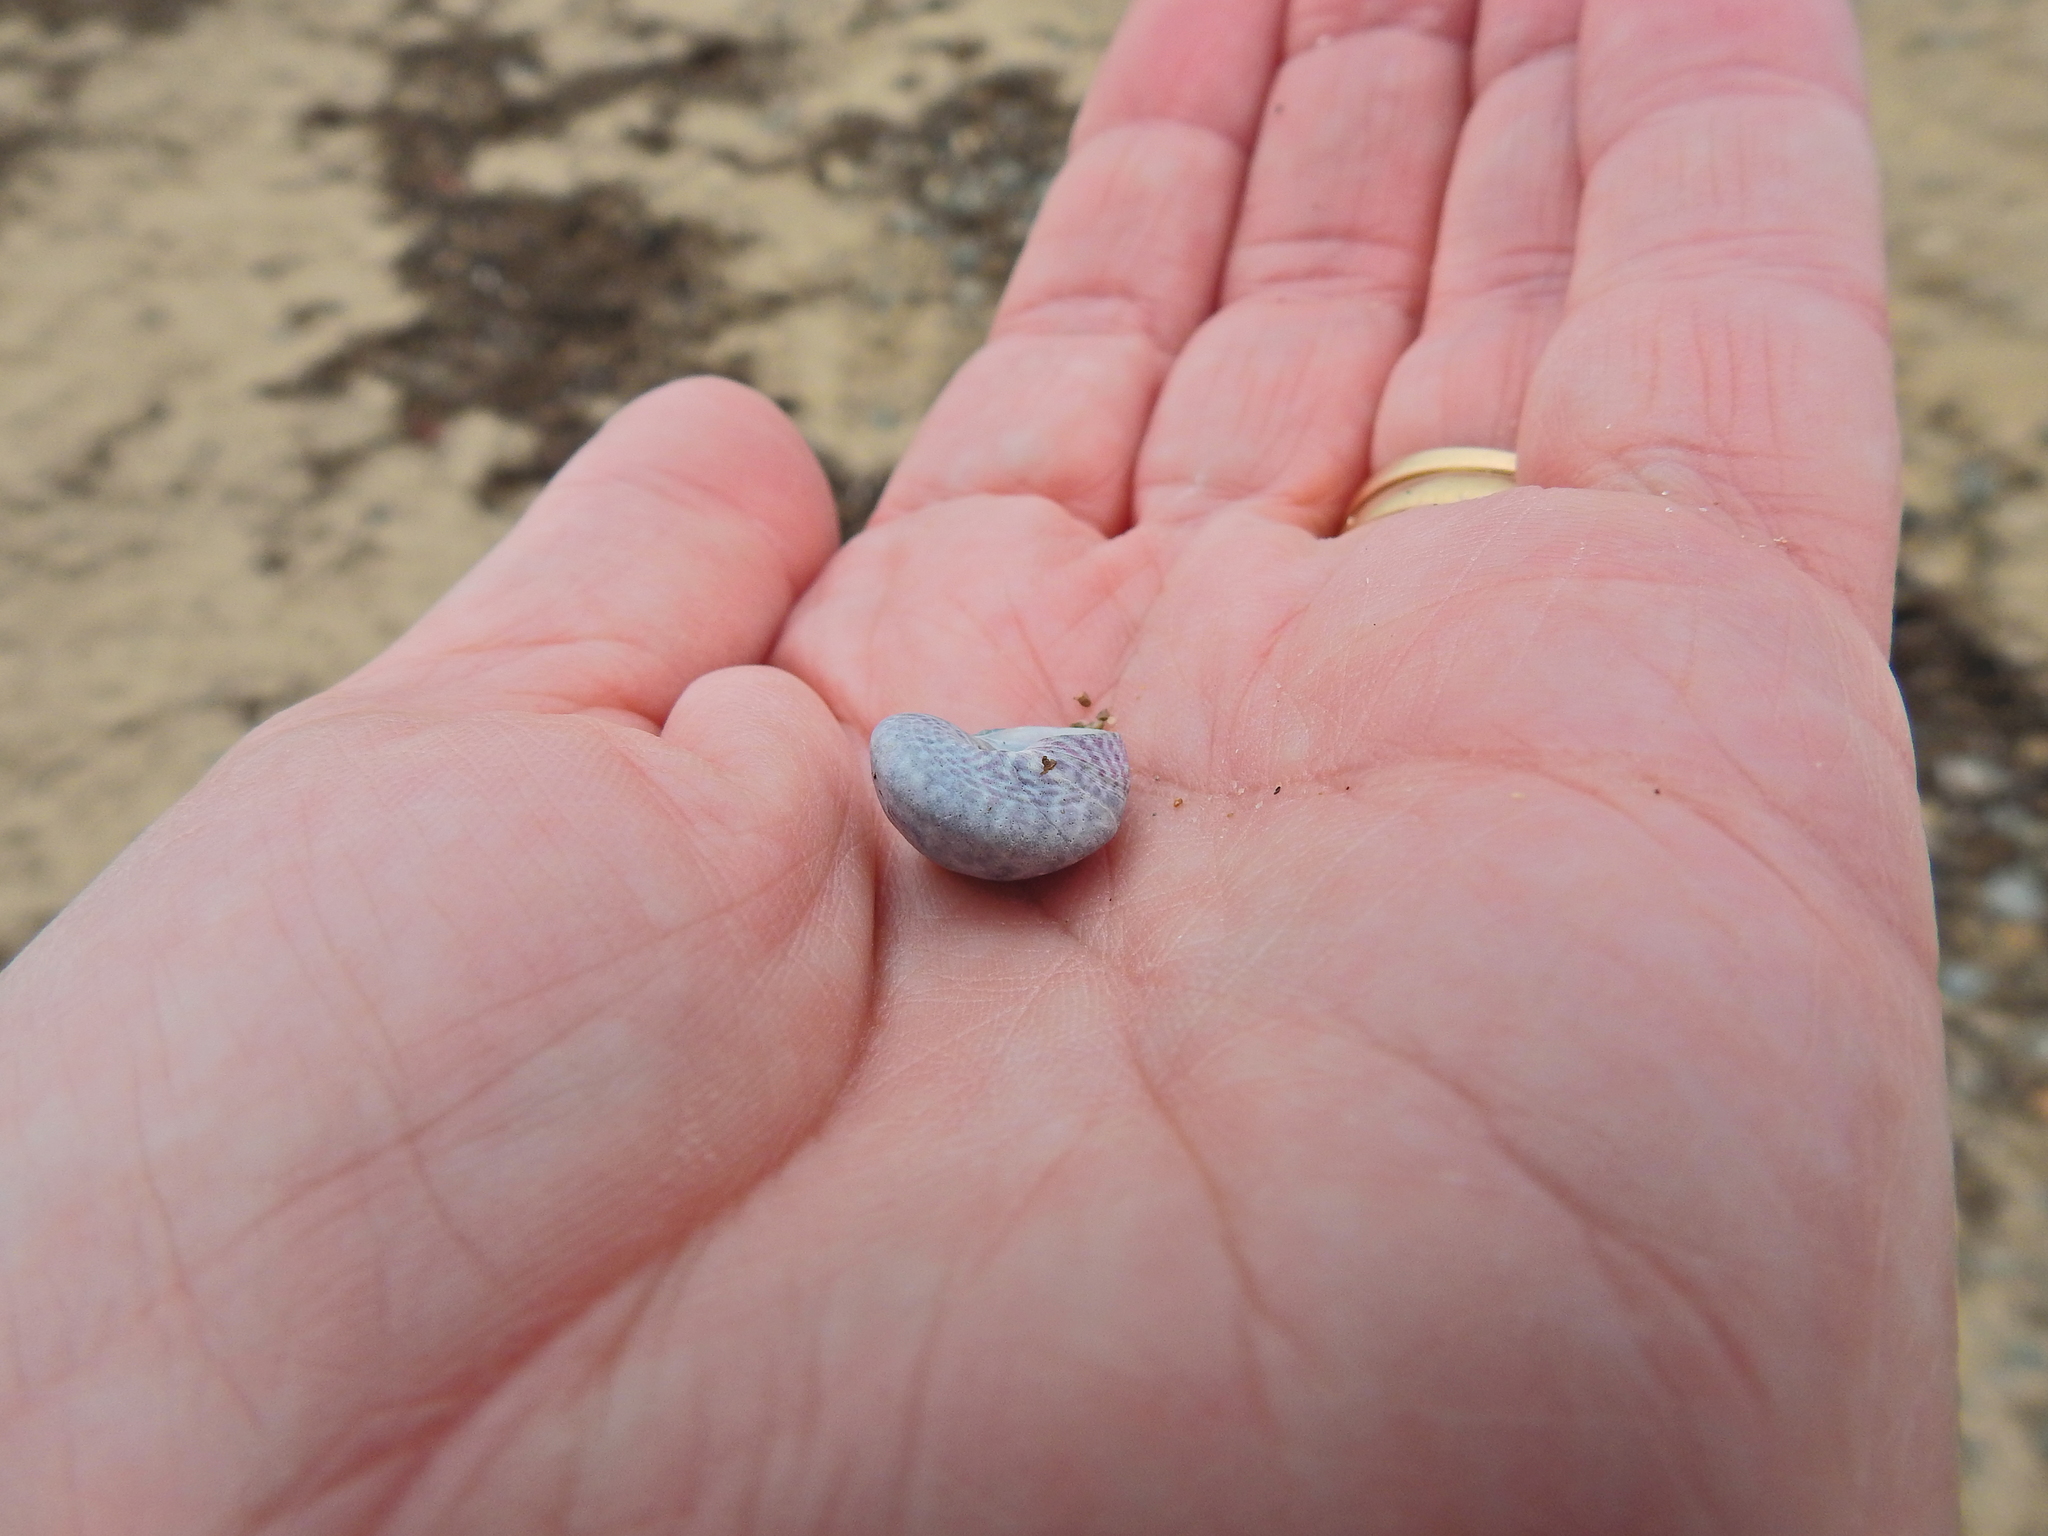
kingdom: Animalia
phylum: Mollusca
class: Gastropoda
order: Trochida
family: Trochidae
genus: Steromphala
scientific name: Steromphala umbilicalis
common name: Flat top shell
